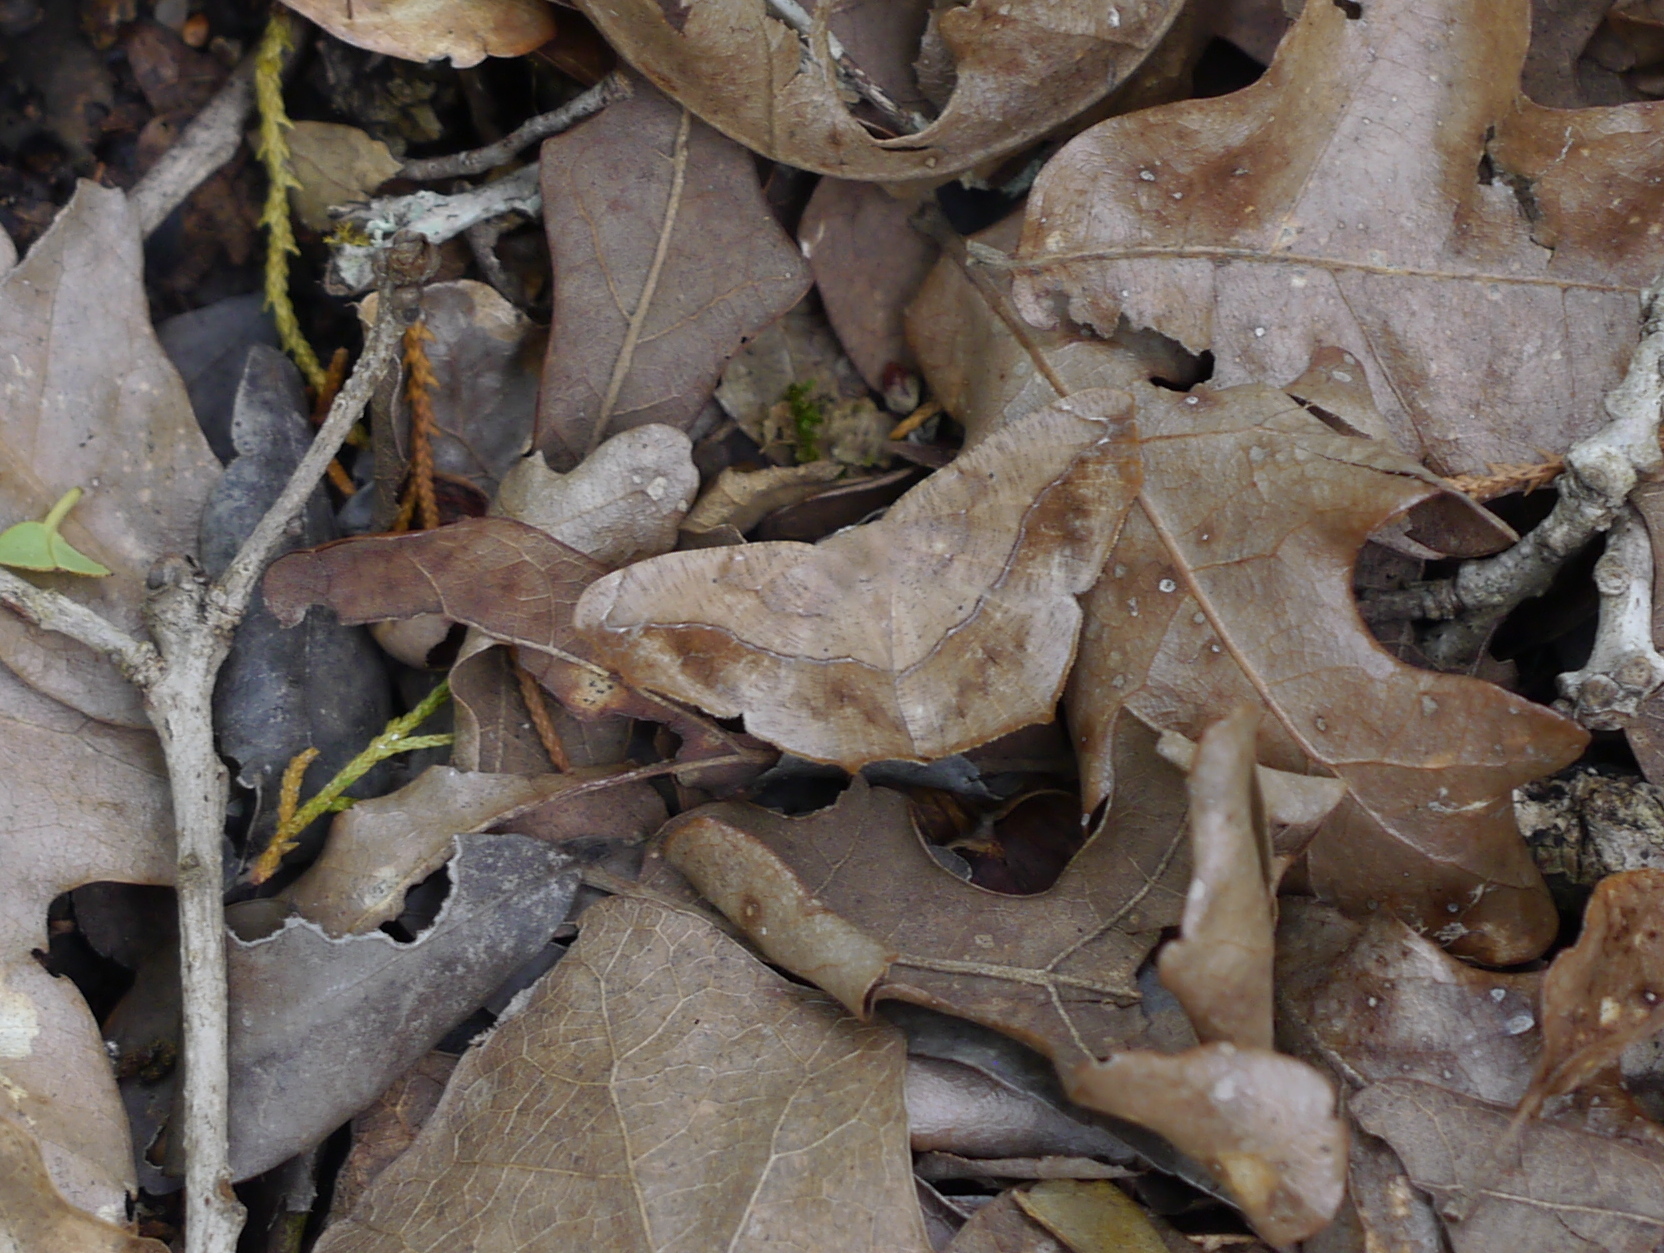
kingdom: Animalia
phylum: Arthropoda
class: Insecta
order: Lepidoptera
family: Geometridae
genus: Prochoerodes
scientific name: Prochoerodes lineola
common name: Large maple spanworm
